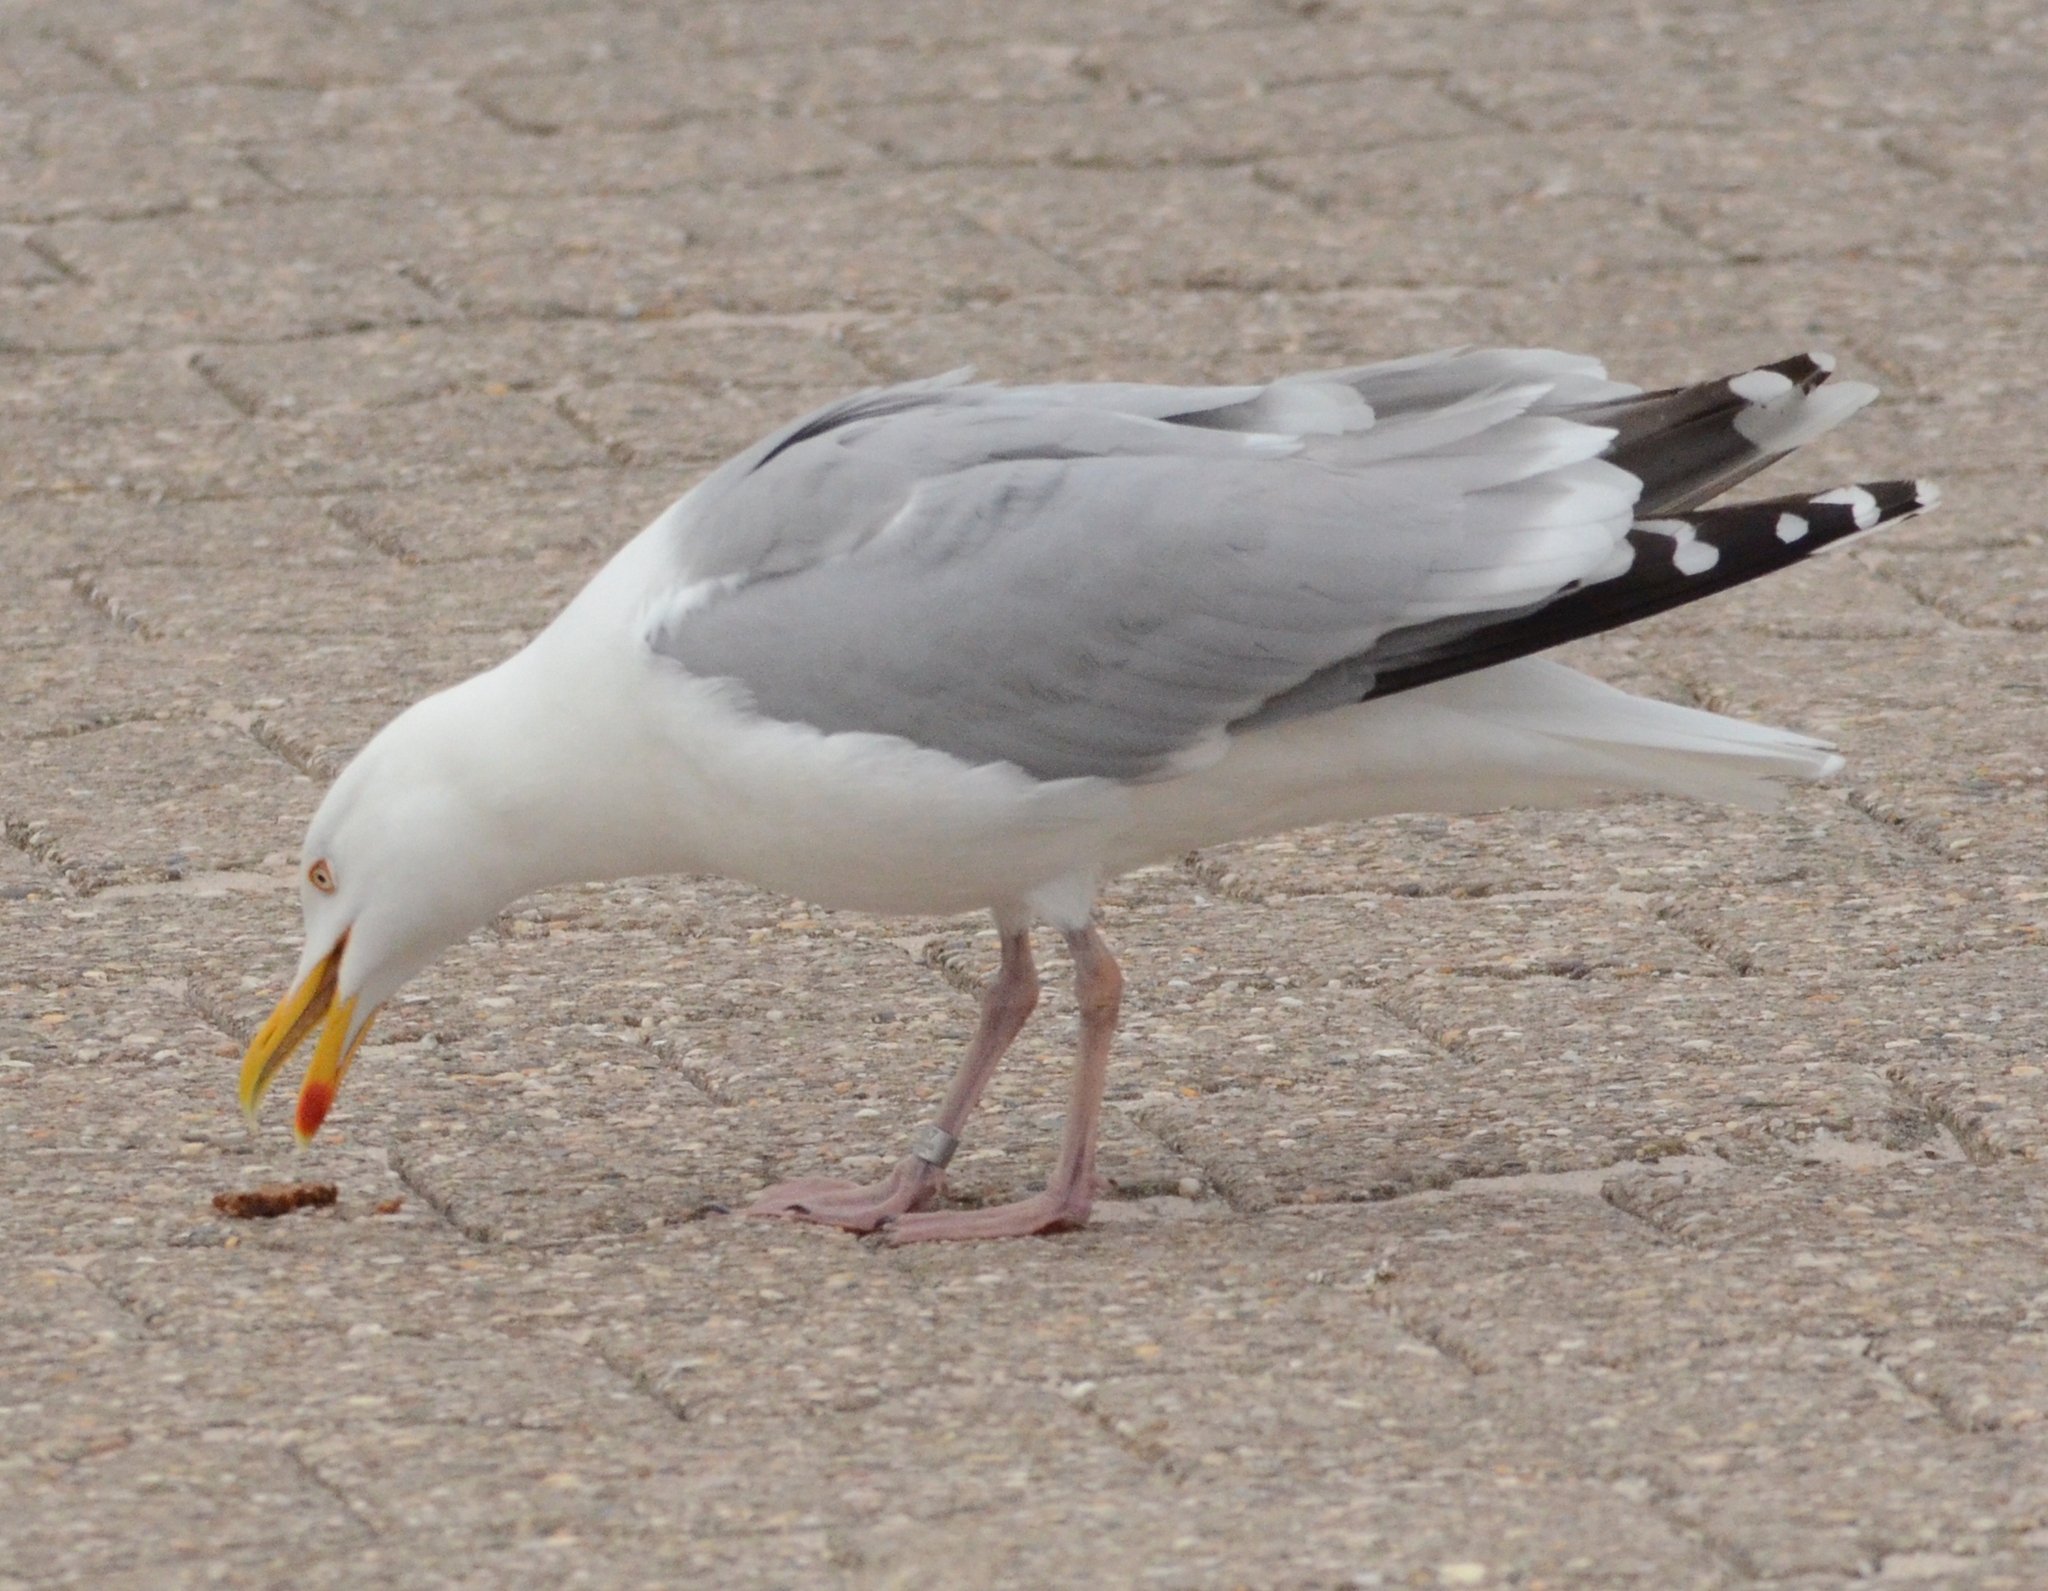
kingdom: Animalia
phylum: Chordata
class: Aves
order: Charadriiformes
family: Laridae
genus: Larus
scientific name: Larus argentatus
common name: Herring gull
